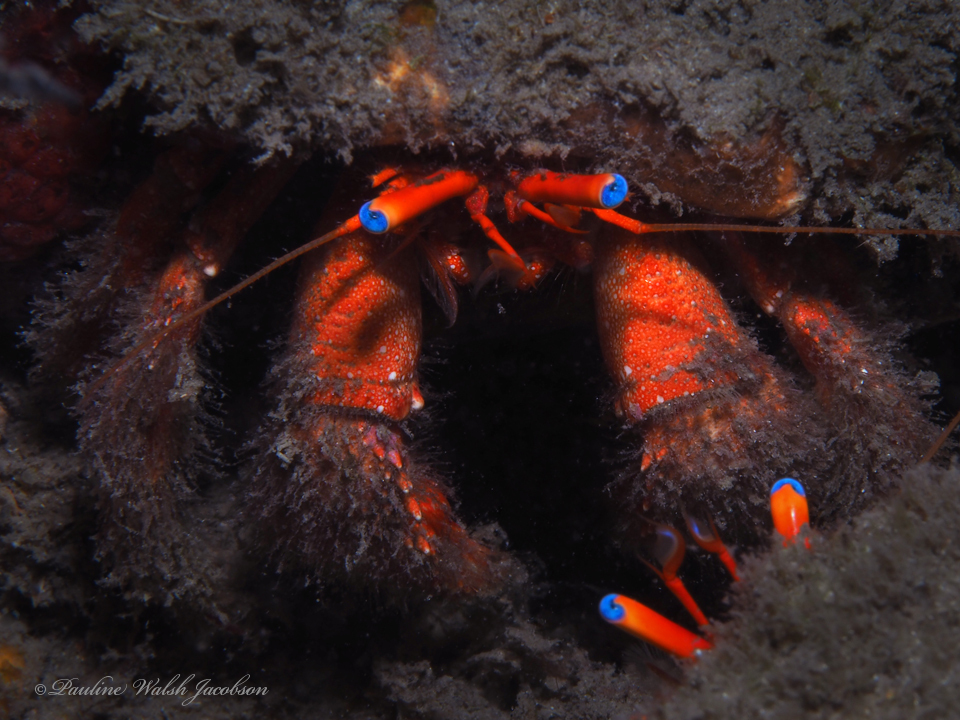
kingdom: Animalia
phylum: Arthropoda
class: Malacostraca
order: Decapoda
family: Diogenidae
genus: Paguristes
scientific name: Paguristes sericeus
